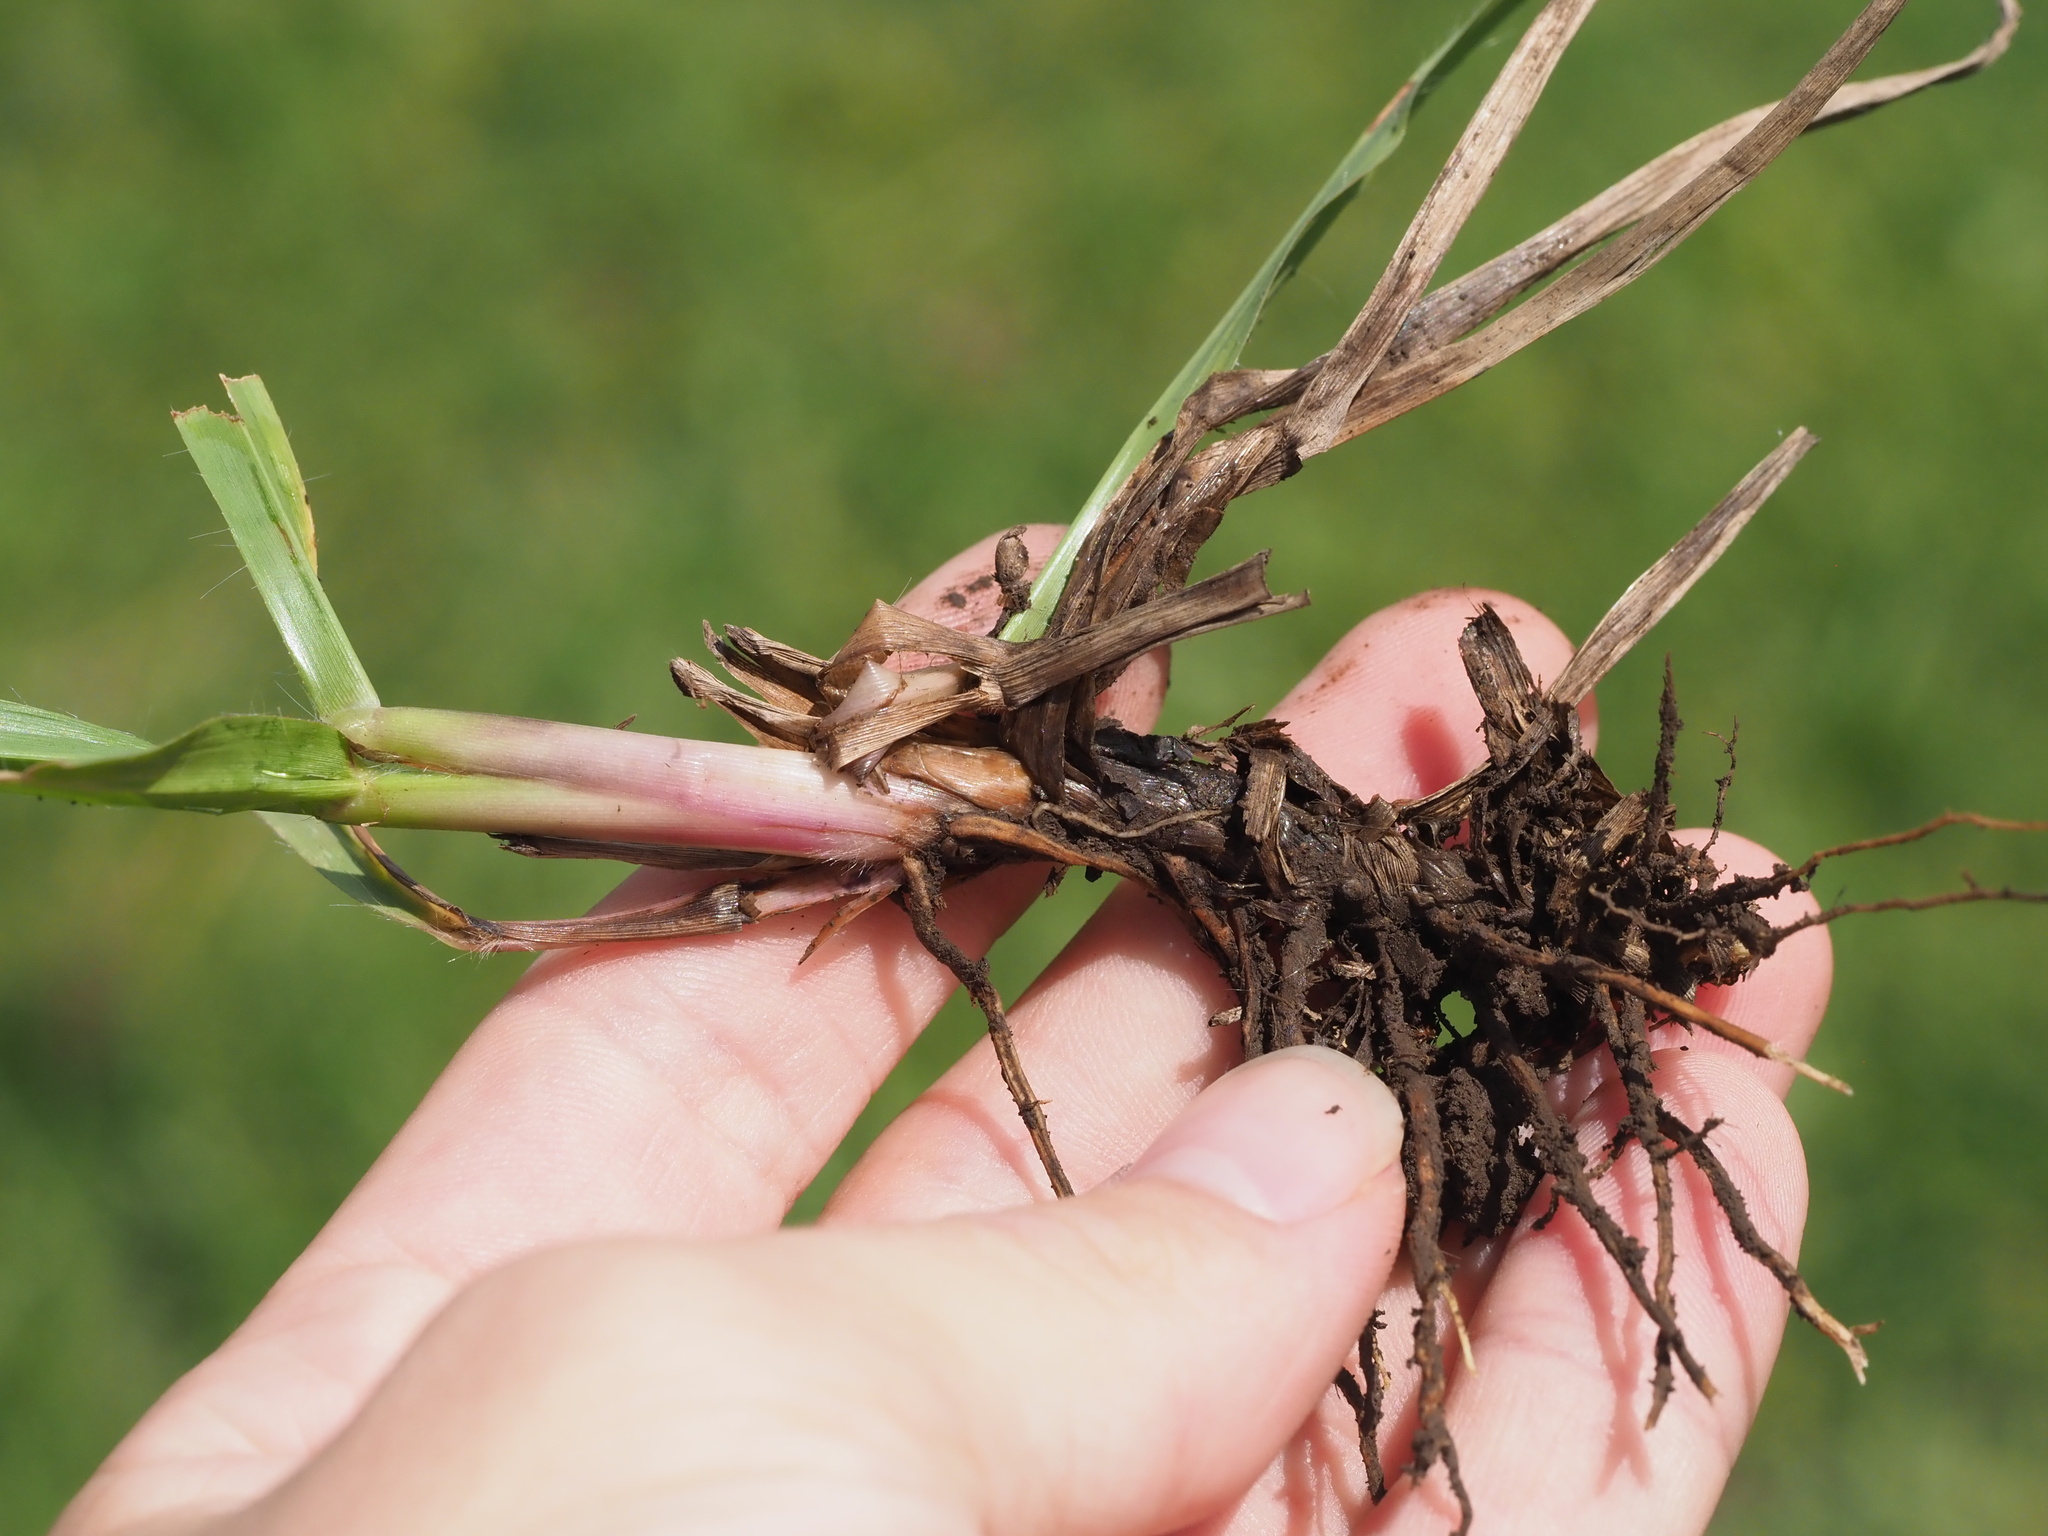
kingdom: Plantae
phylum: Tracheophyta
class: Liliopsida
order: Poales
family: Poaceae
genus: Paspalum
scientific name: Paspalum notatum
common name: Bahiagrass
